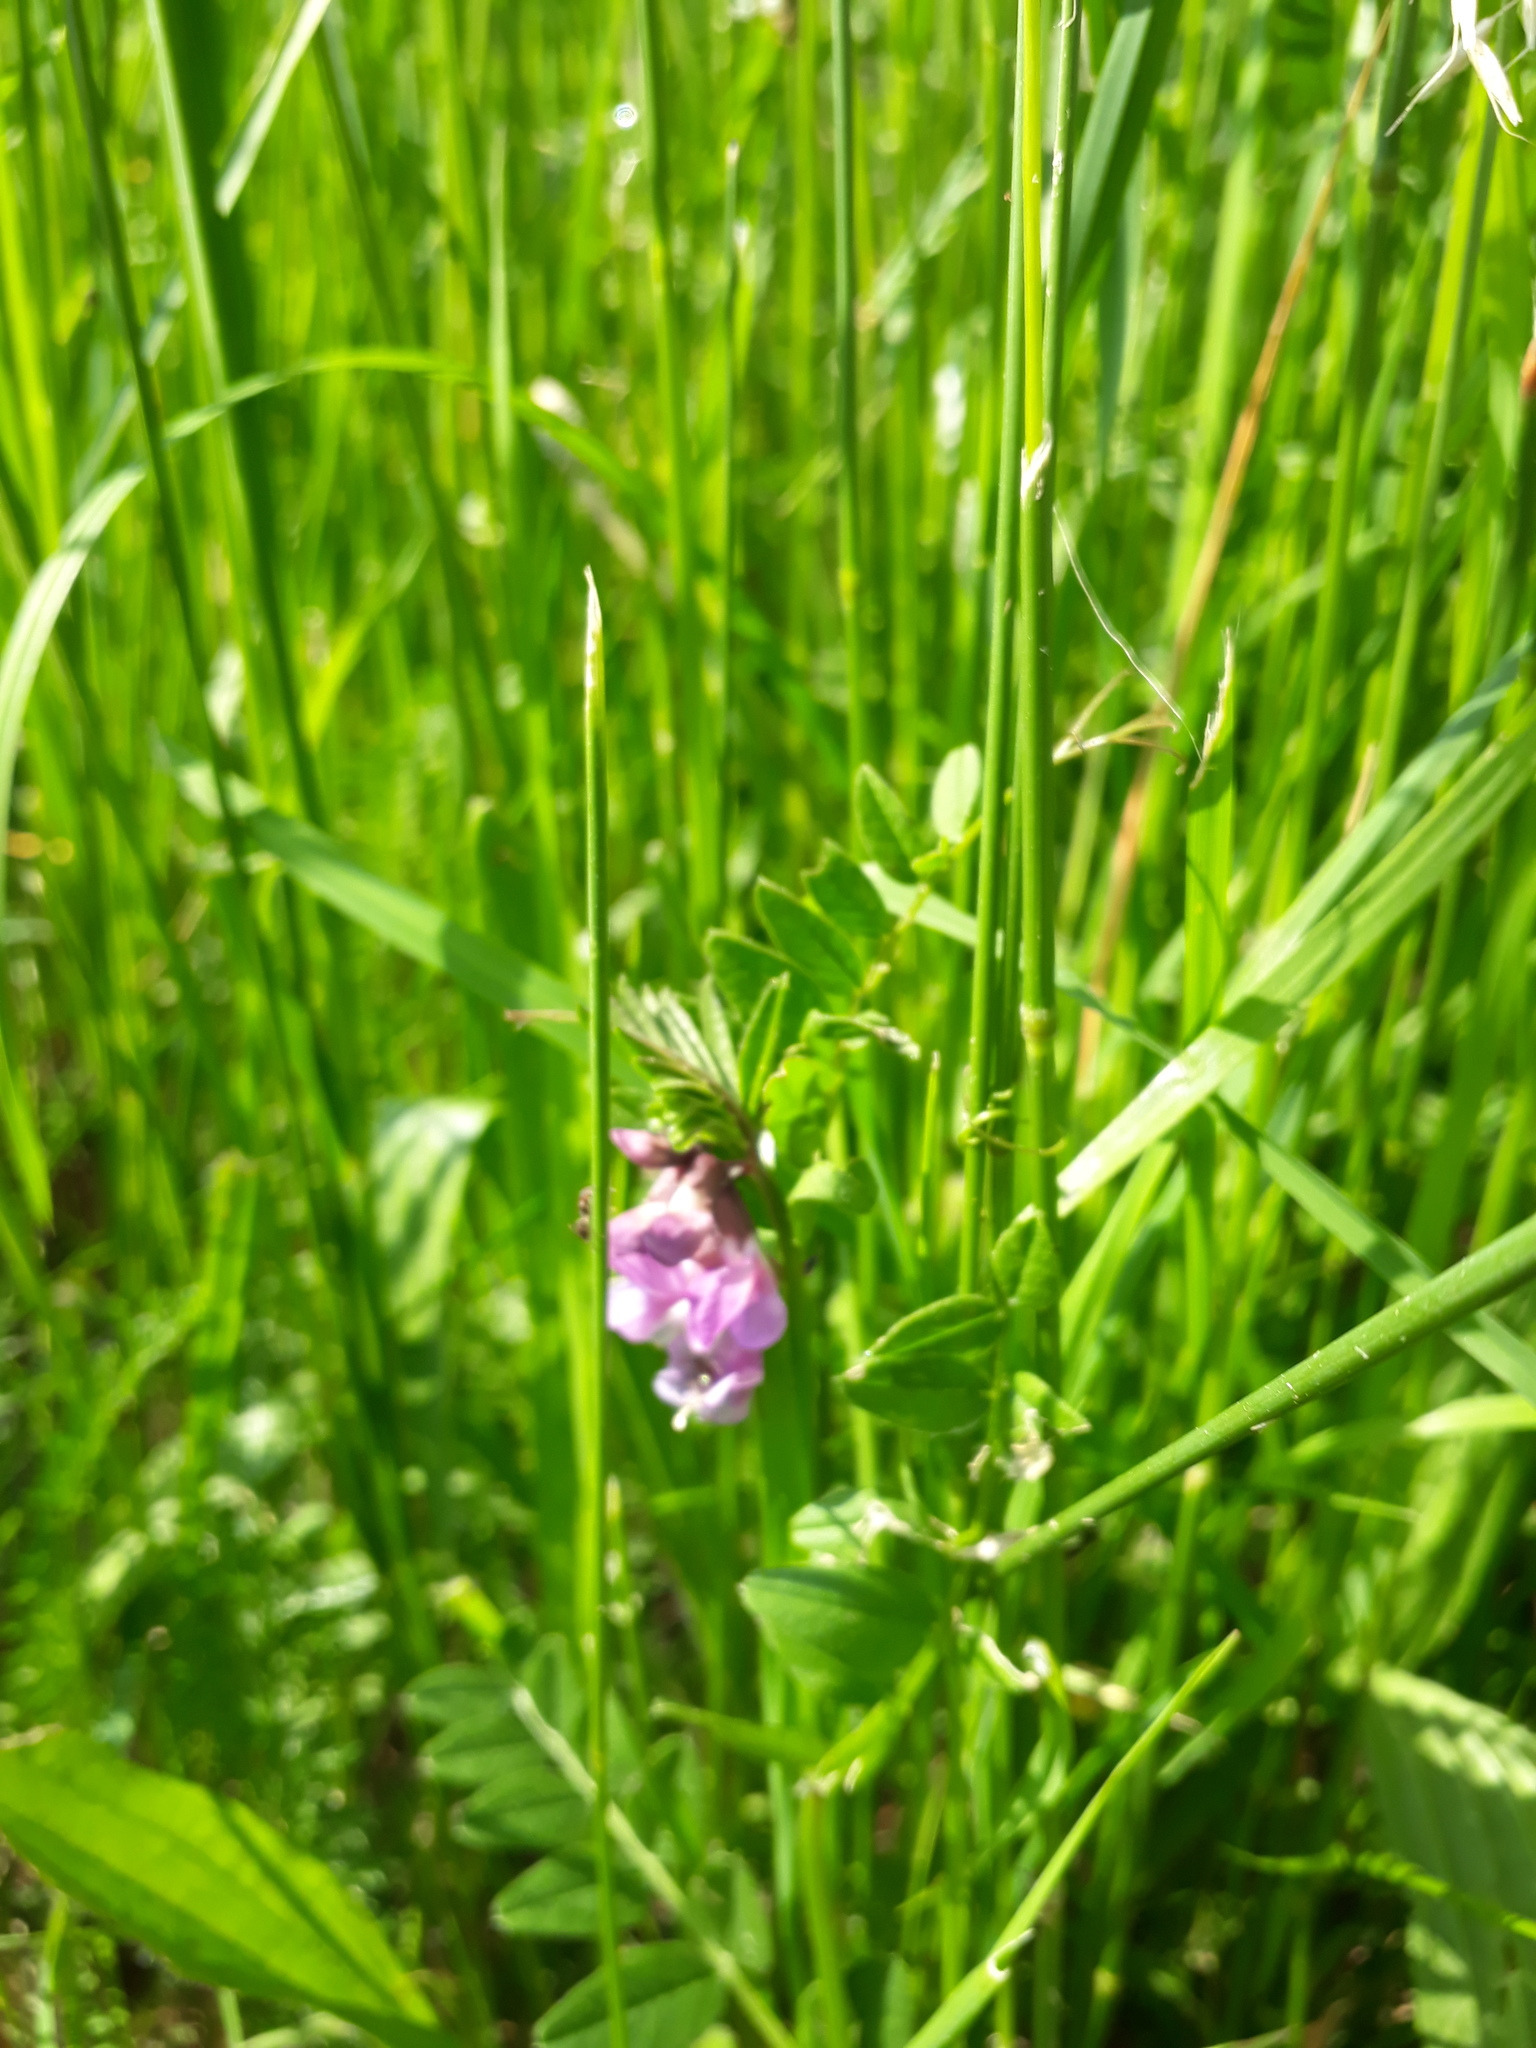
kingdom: Plantae
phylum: Tracheophyta
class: Magnoliopsida
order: Fabales
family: Fabaceae
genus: Vicia
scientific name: Vicia sepium
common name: Bush vetch
